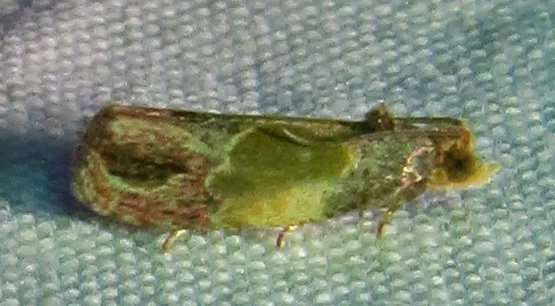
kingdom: Animalia
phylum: Arthropoda
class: Insecta
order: Lepidoptera
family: Tortricidae
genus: Eumarozia
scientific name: Eumarozia malachitana
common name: Sculptured moth
